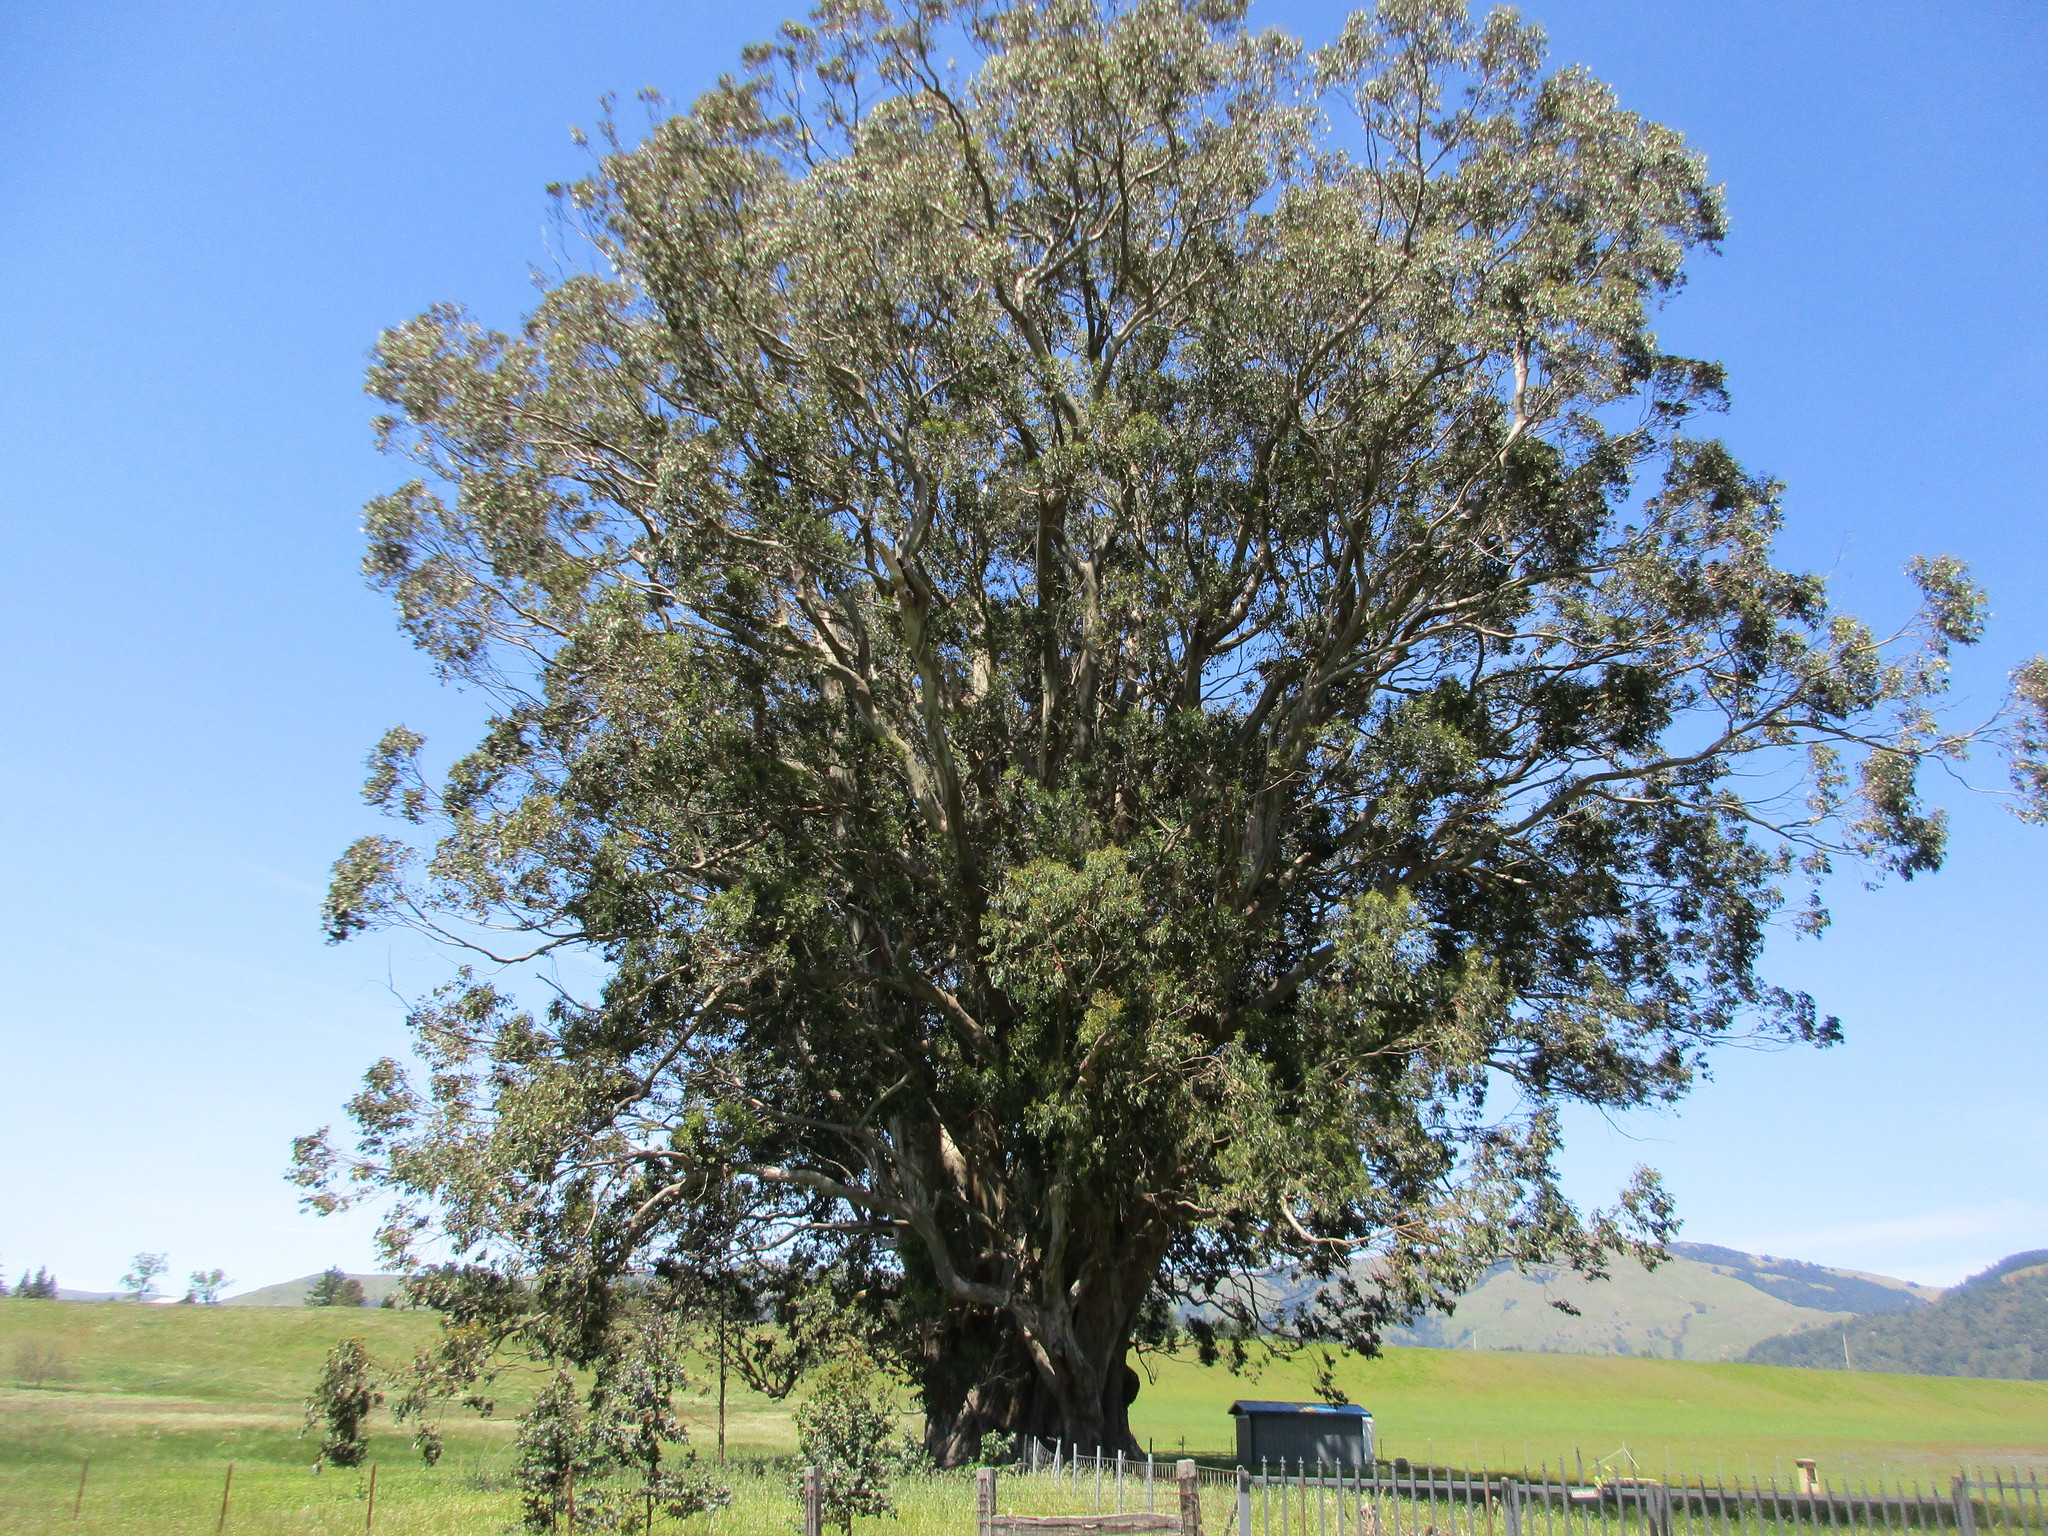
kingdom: Plantae
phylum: Tracheophyta
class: Magnoliopsida
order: Myrtales
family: Myrtaceae
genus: Eucalyptus
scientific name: Eucalyptus globulus
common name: Southern blue-gum
